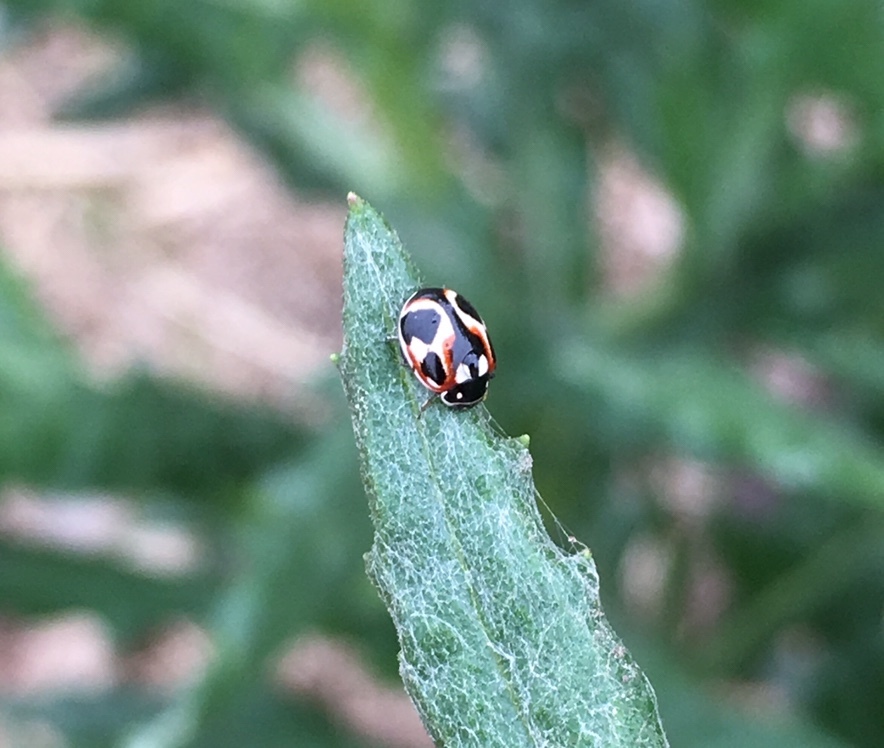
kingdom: Animalia
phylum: Arthropoda
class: Insecta
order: Coleoptera
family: Coccinellidae
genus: Cycloneda
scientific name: Cycloneda ancoralis
